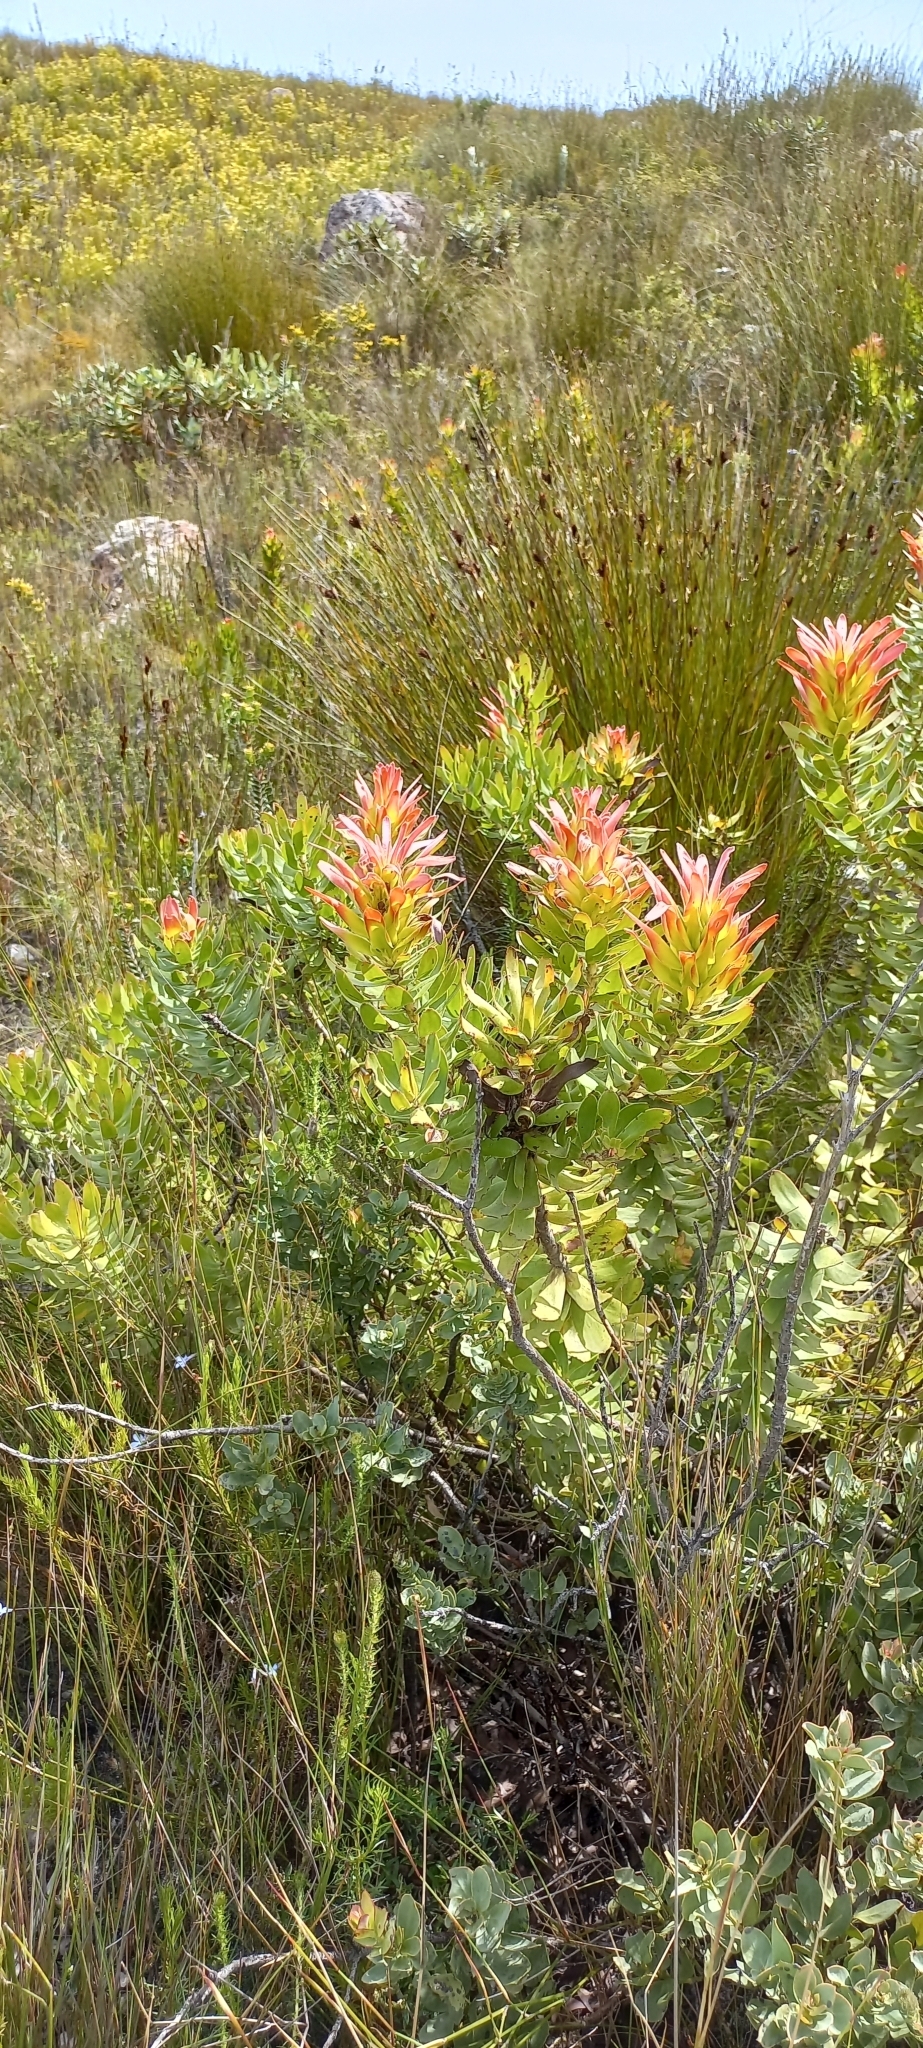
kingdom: Plantae
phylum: Tracheophyta
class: Magnoliopsida
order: Proteales
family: Proteaceae
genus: Mimetes
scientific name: Mimetes cucullatus
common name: Common pagoda
